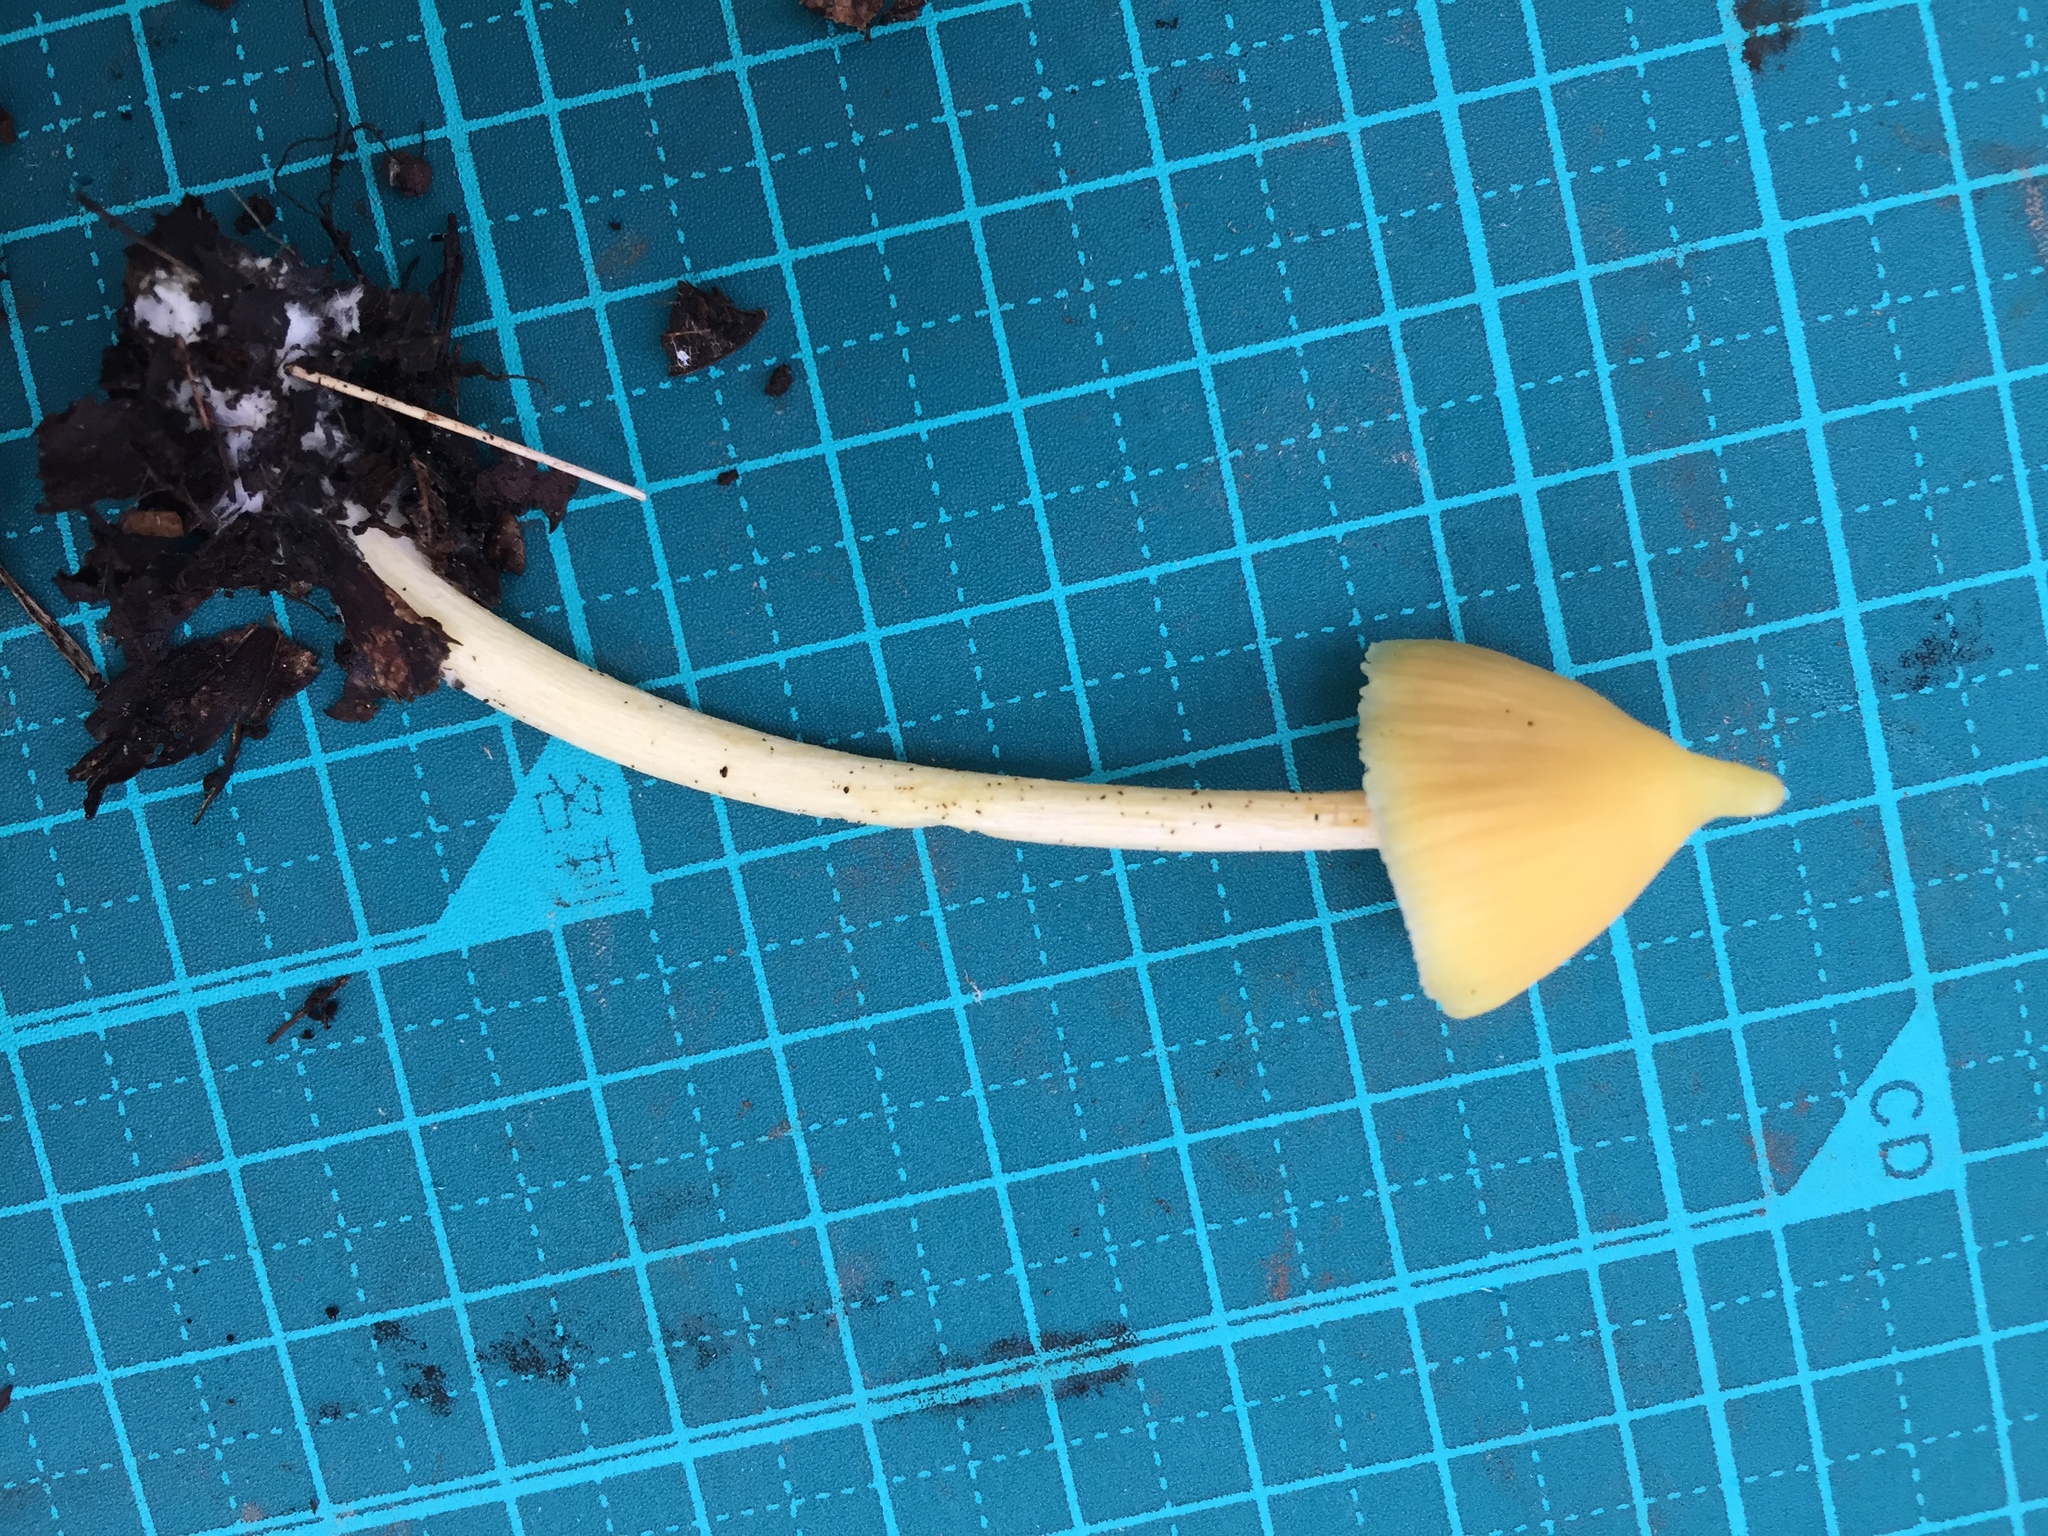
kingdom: Fungi
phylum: Basidiomycota
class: Agaricomycetes
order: Agaricales
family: Entolomataceae
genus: Entoloma
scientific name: Entoloma murrayi
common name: Yellow unicorn entoloma
